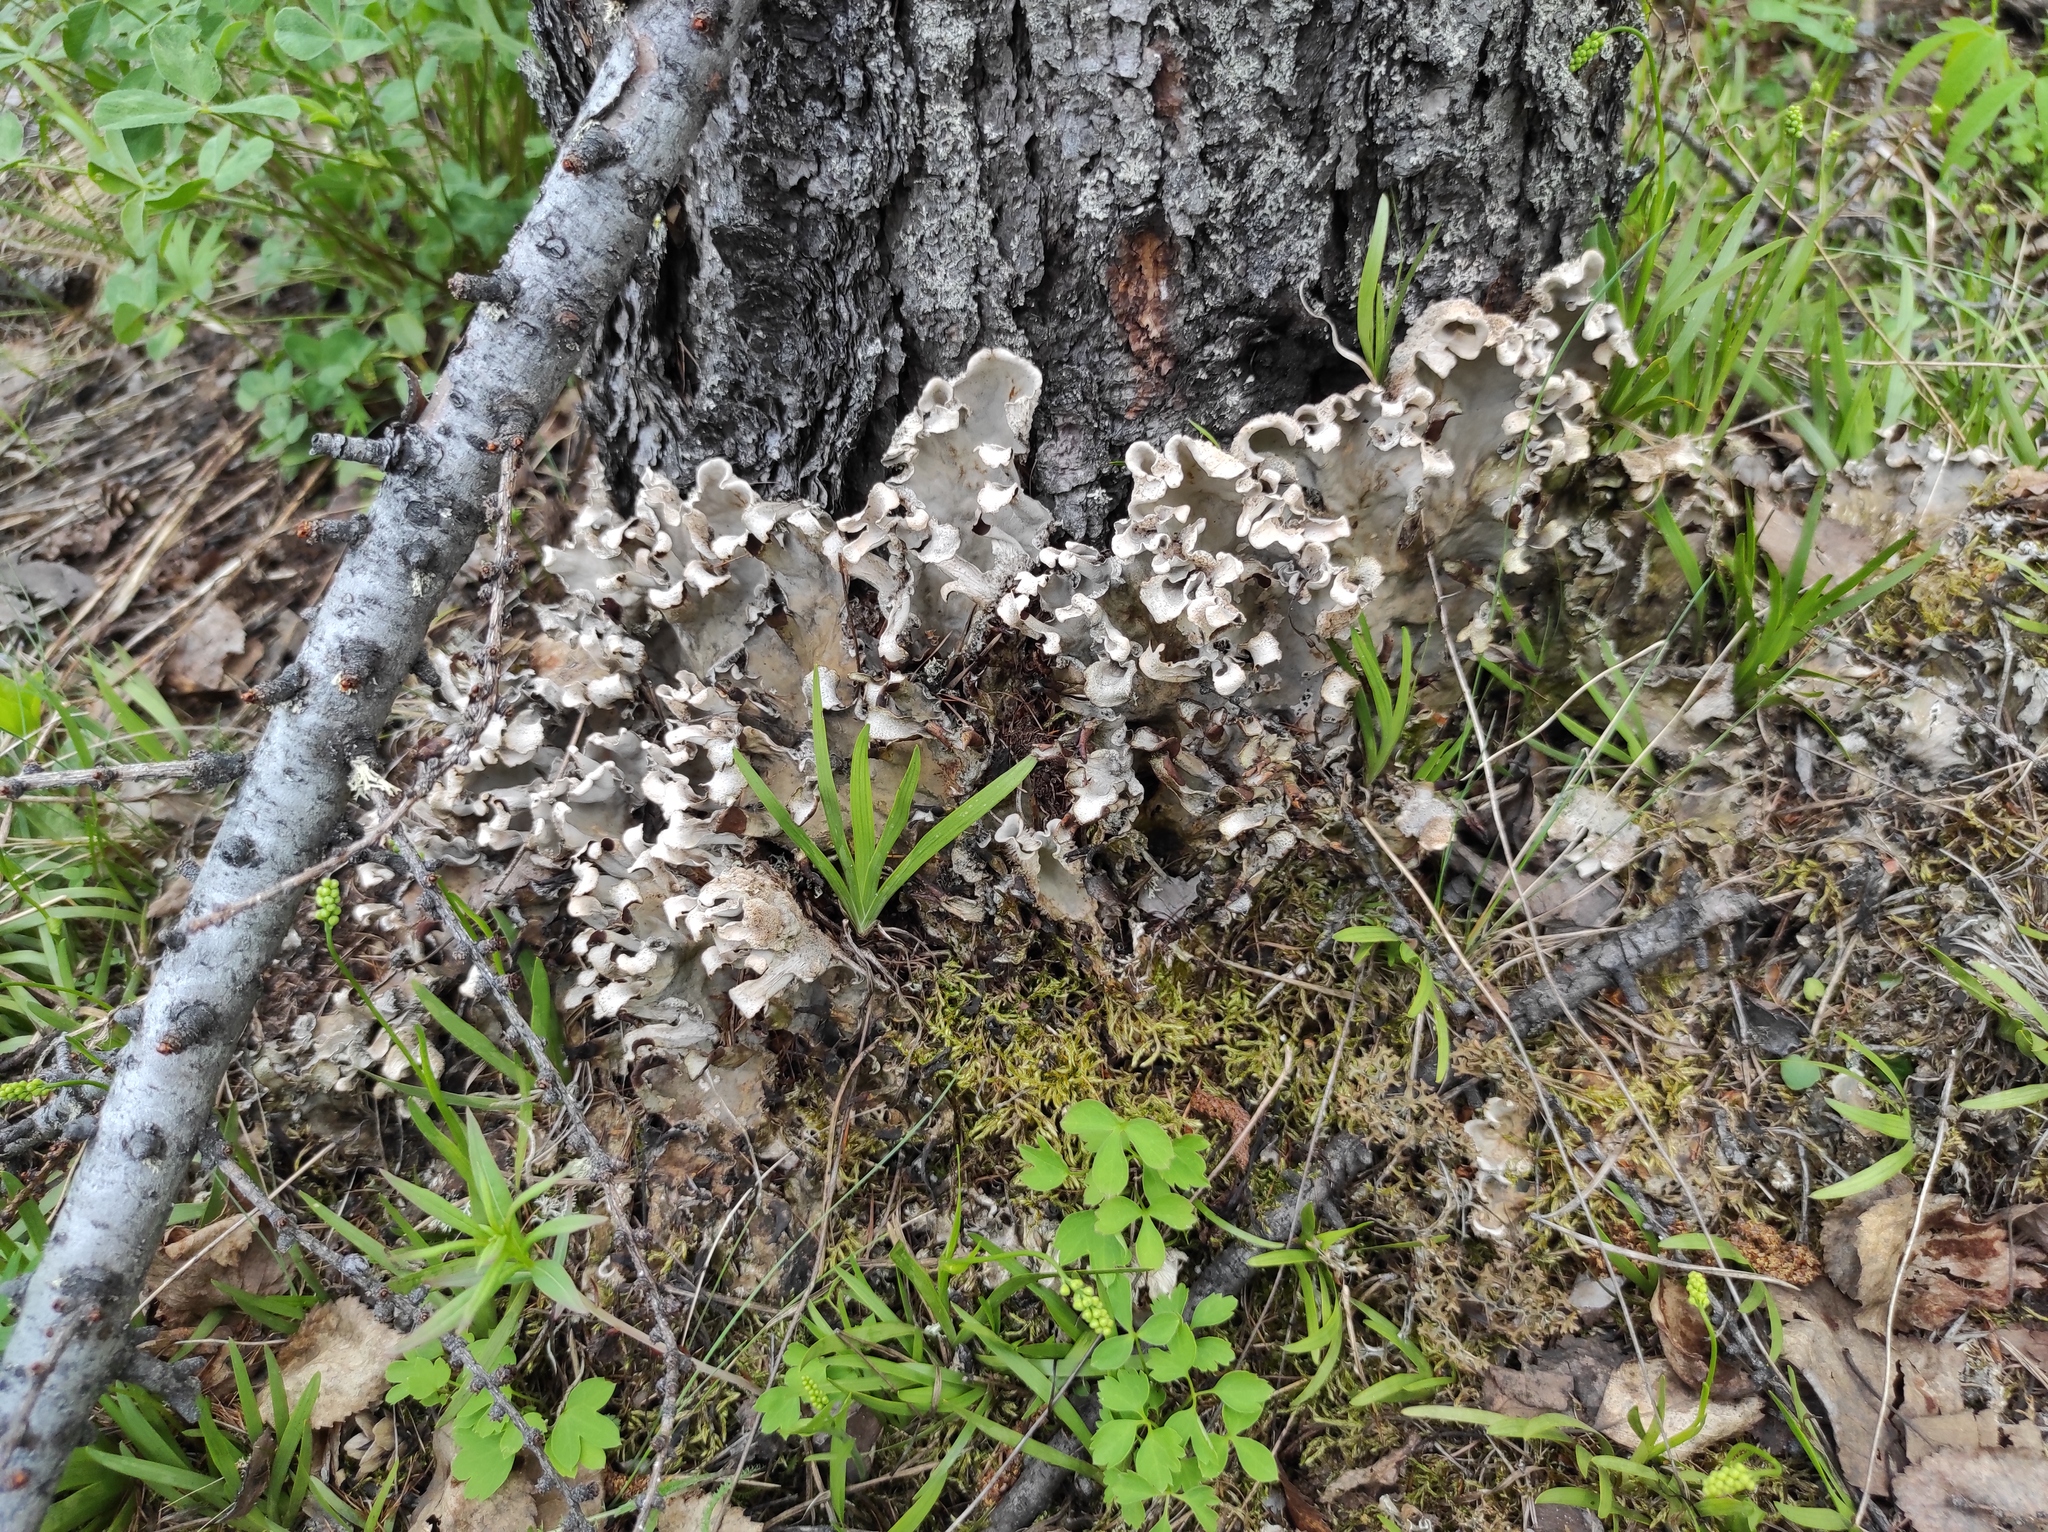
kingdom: Plantae
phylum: Tracheophyta
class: Liliopsida
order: Alismatales
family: Tofieldiaceae
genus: Tofieldia
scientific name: Tofieldia cernua
